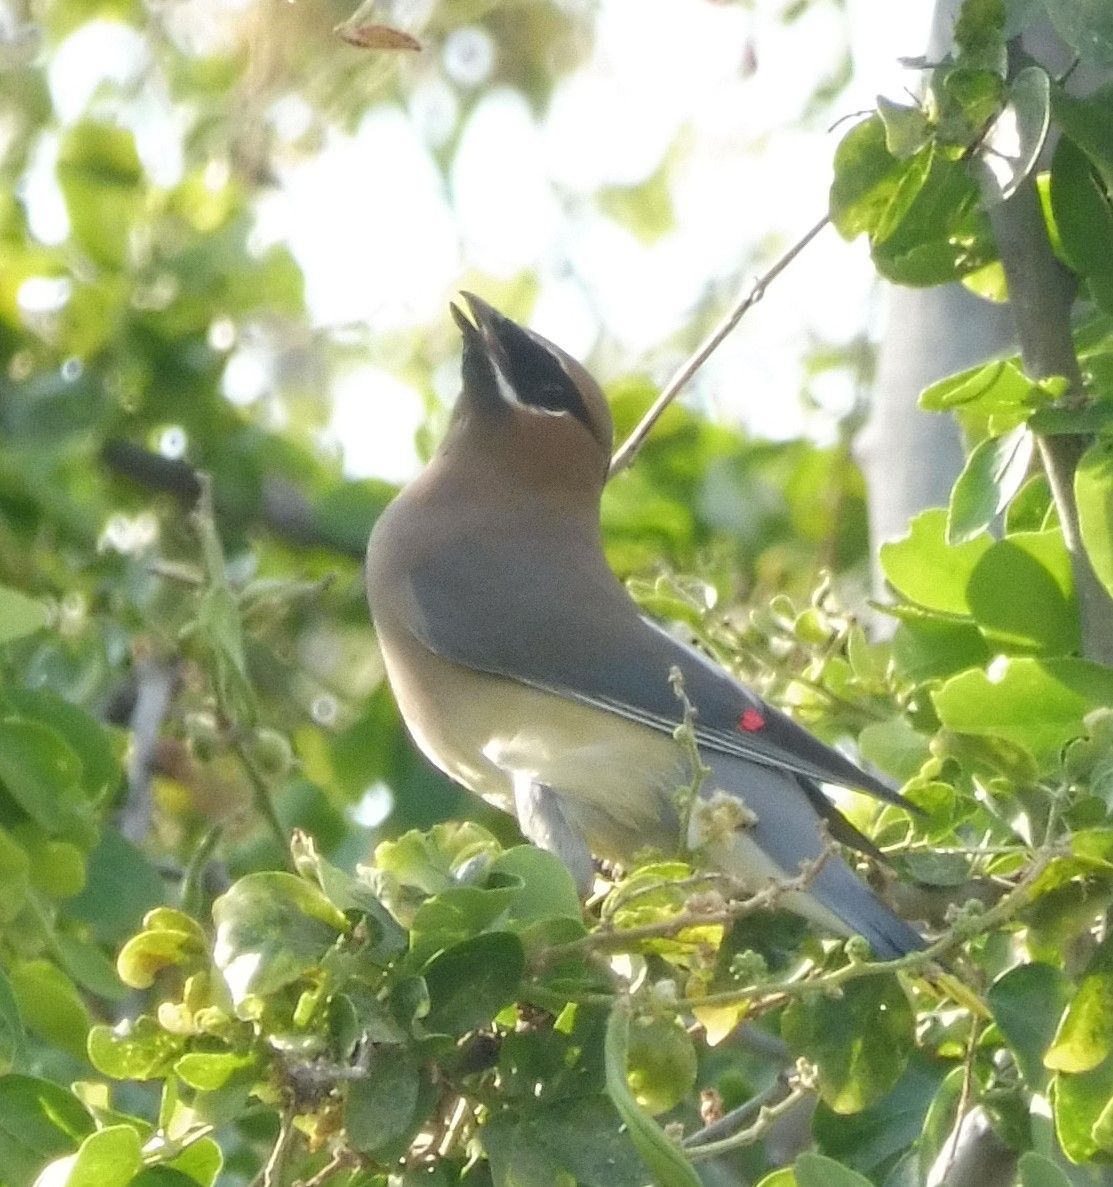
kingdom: Animalia
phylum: Chordata
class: Aves
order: Passeriformes
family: Bombycillidae
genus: Bombycilla
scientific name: Bombycilla cedrorum
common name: Cedar waxwing
